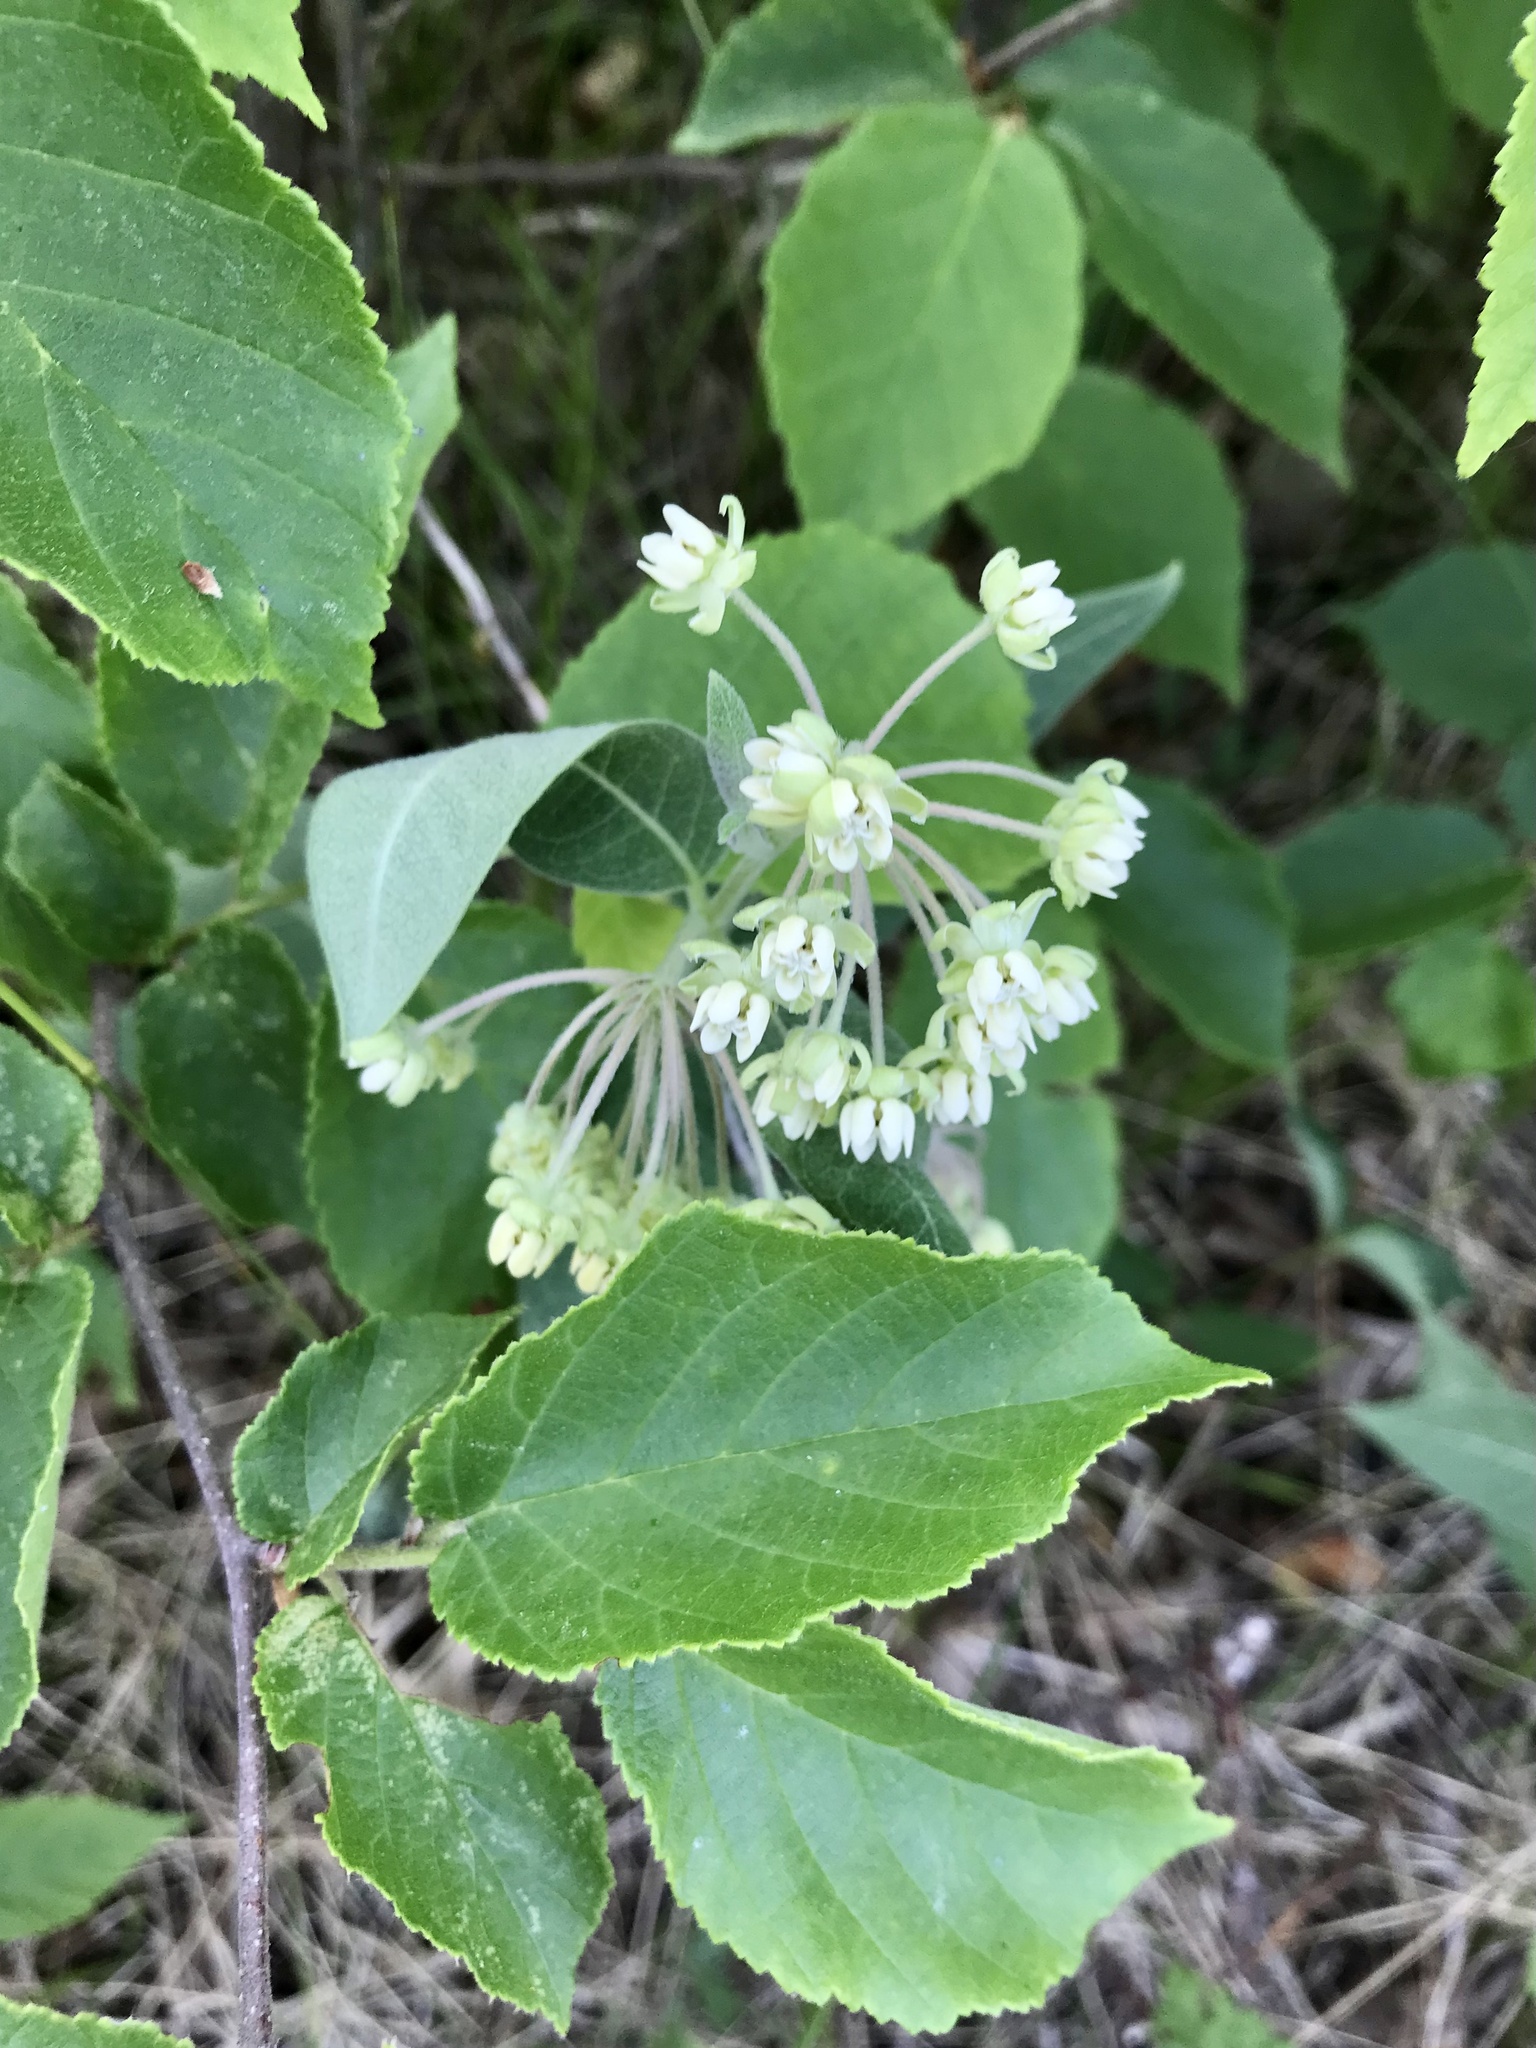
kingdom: Plantae
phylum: Tracheophyta
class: Magnoliopsida
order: Gentianales
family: Apocynaceae
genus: Asclepias
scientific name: Asclepias ovalifolia
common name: Dwarf milkweed
